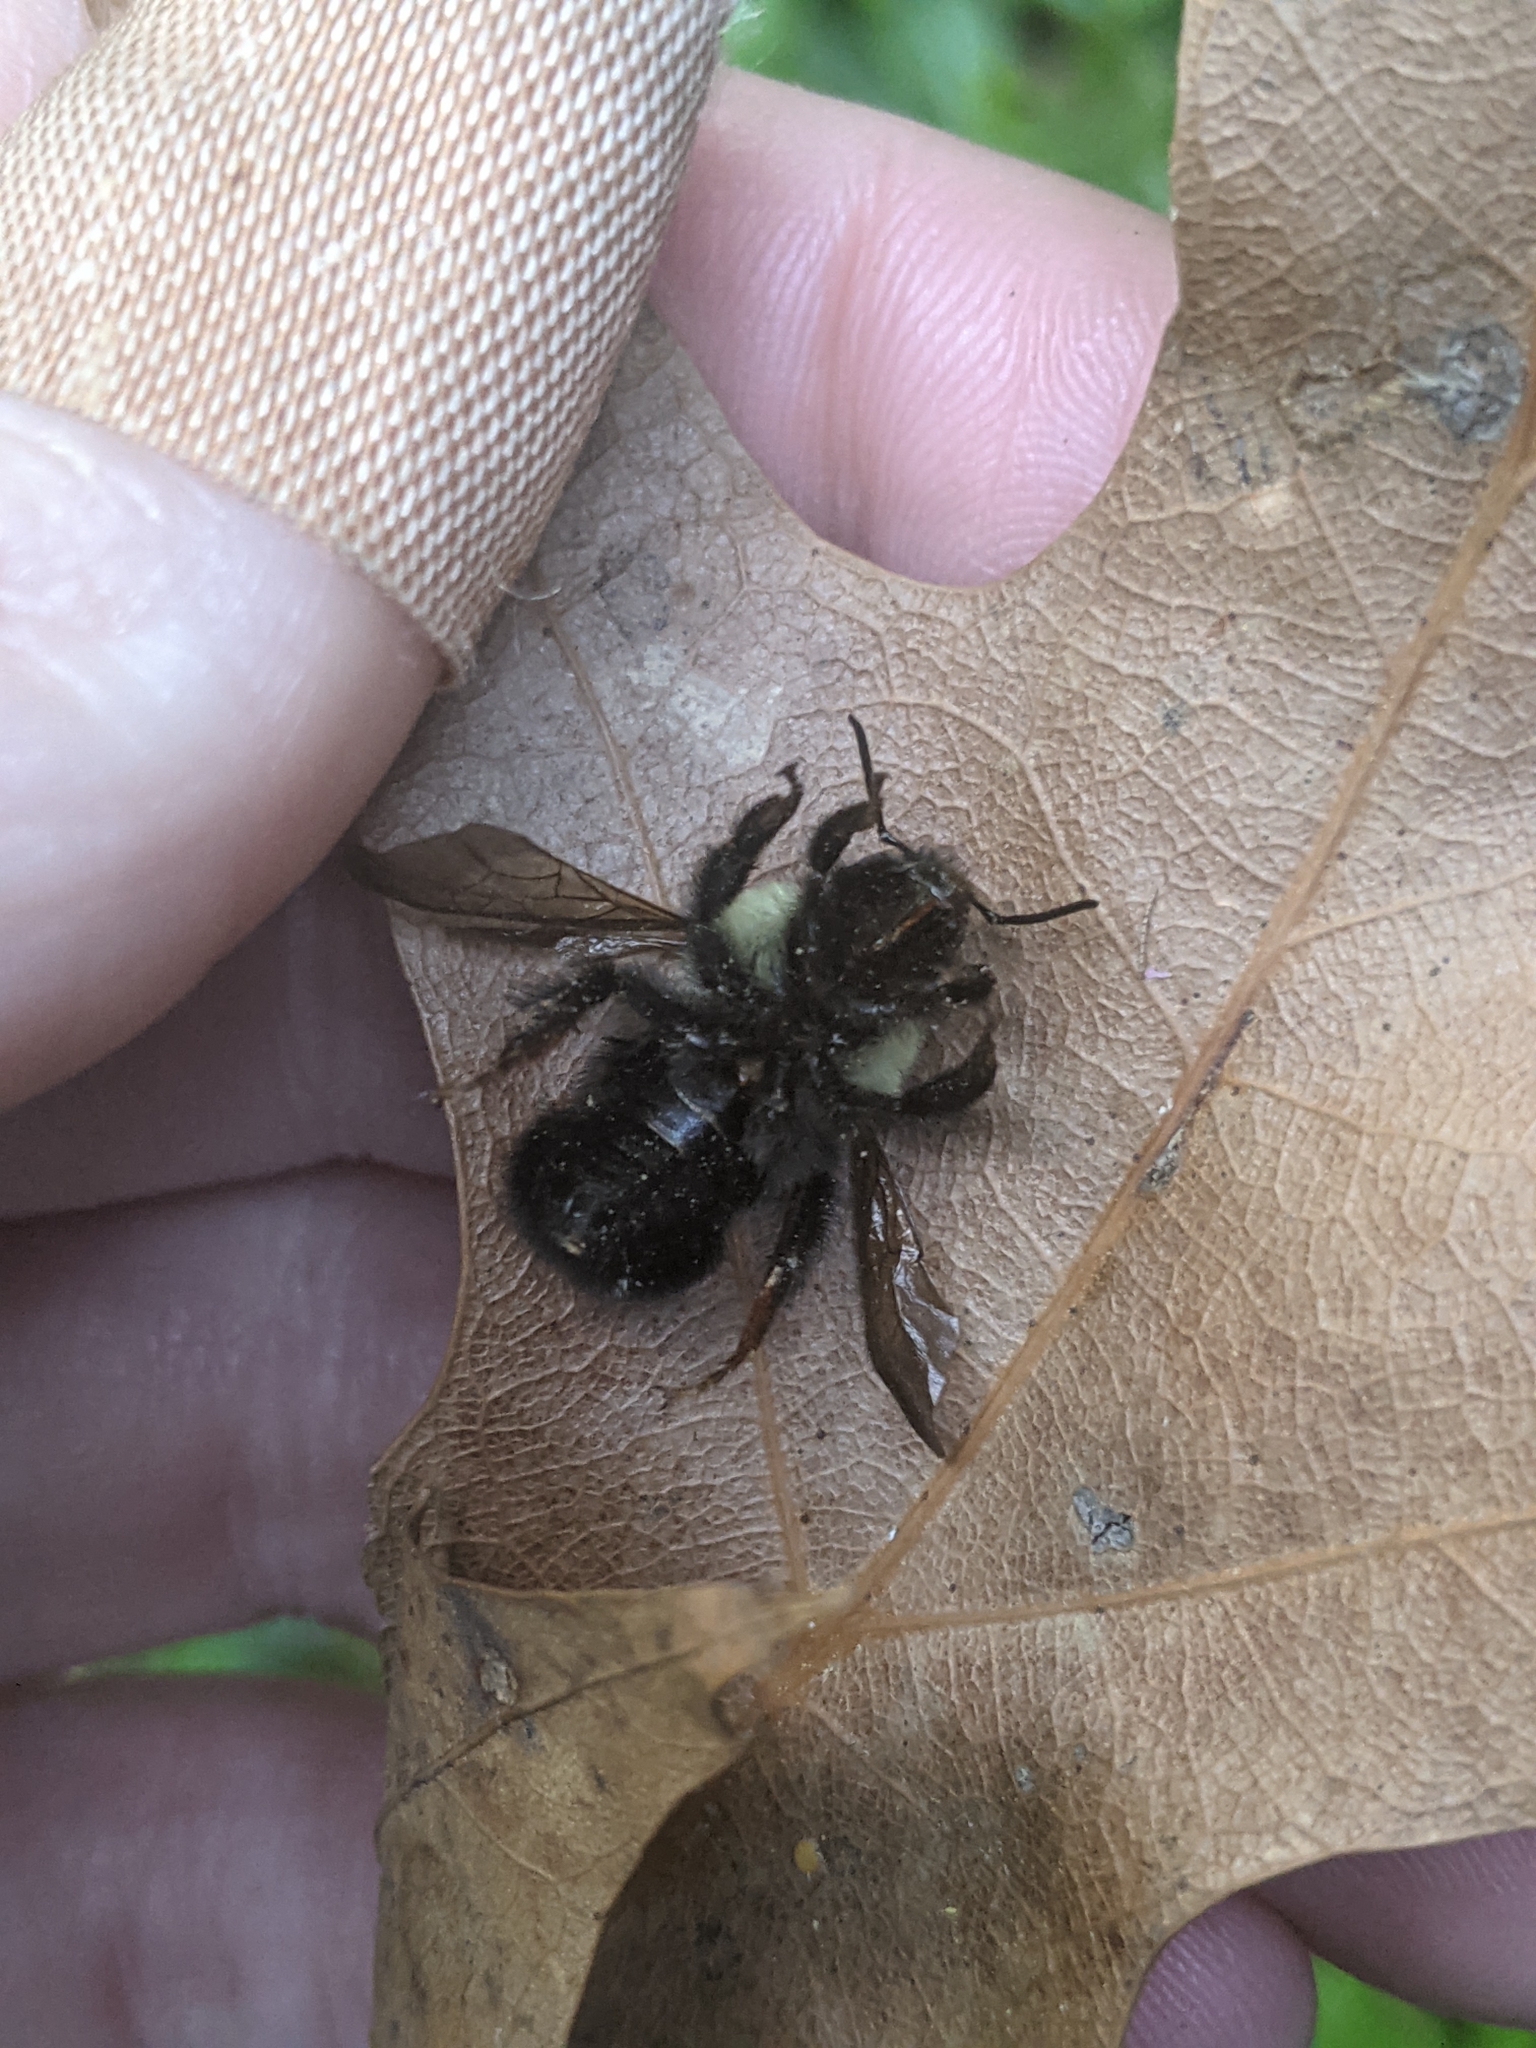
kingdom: Animalia
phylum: Arthropoda
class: Insecta
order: Hymenoptera
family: Apidae
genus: Bombus
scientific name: Bombus bimaculatus
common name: Two-spotted bumble bee
